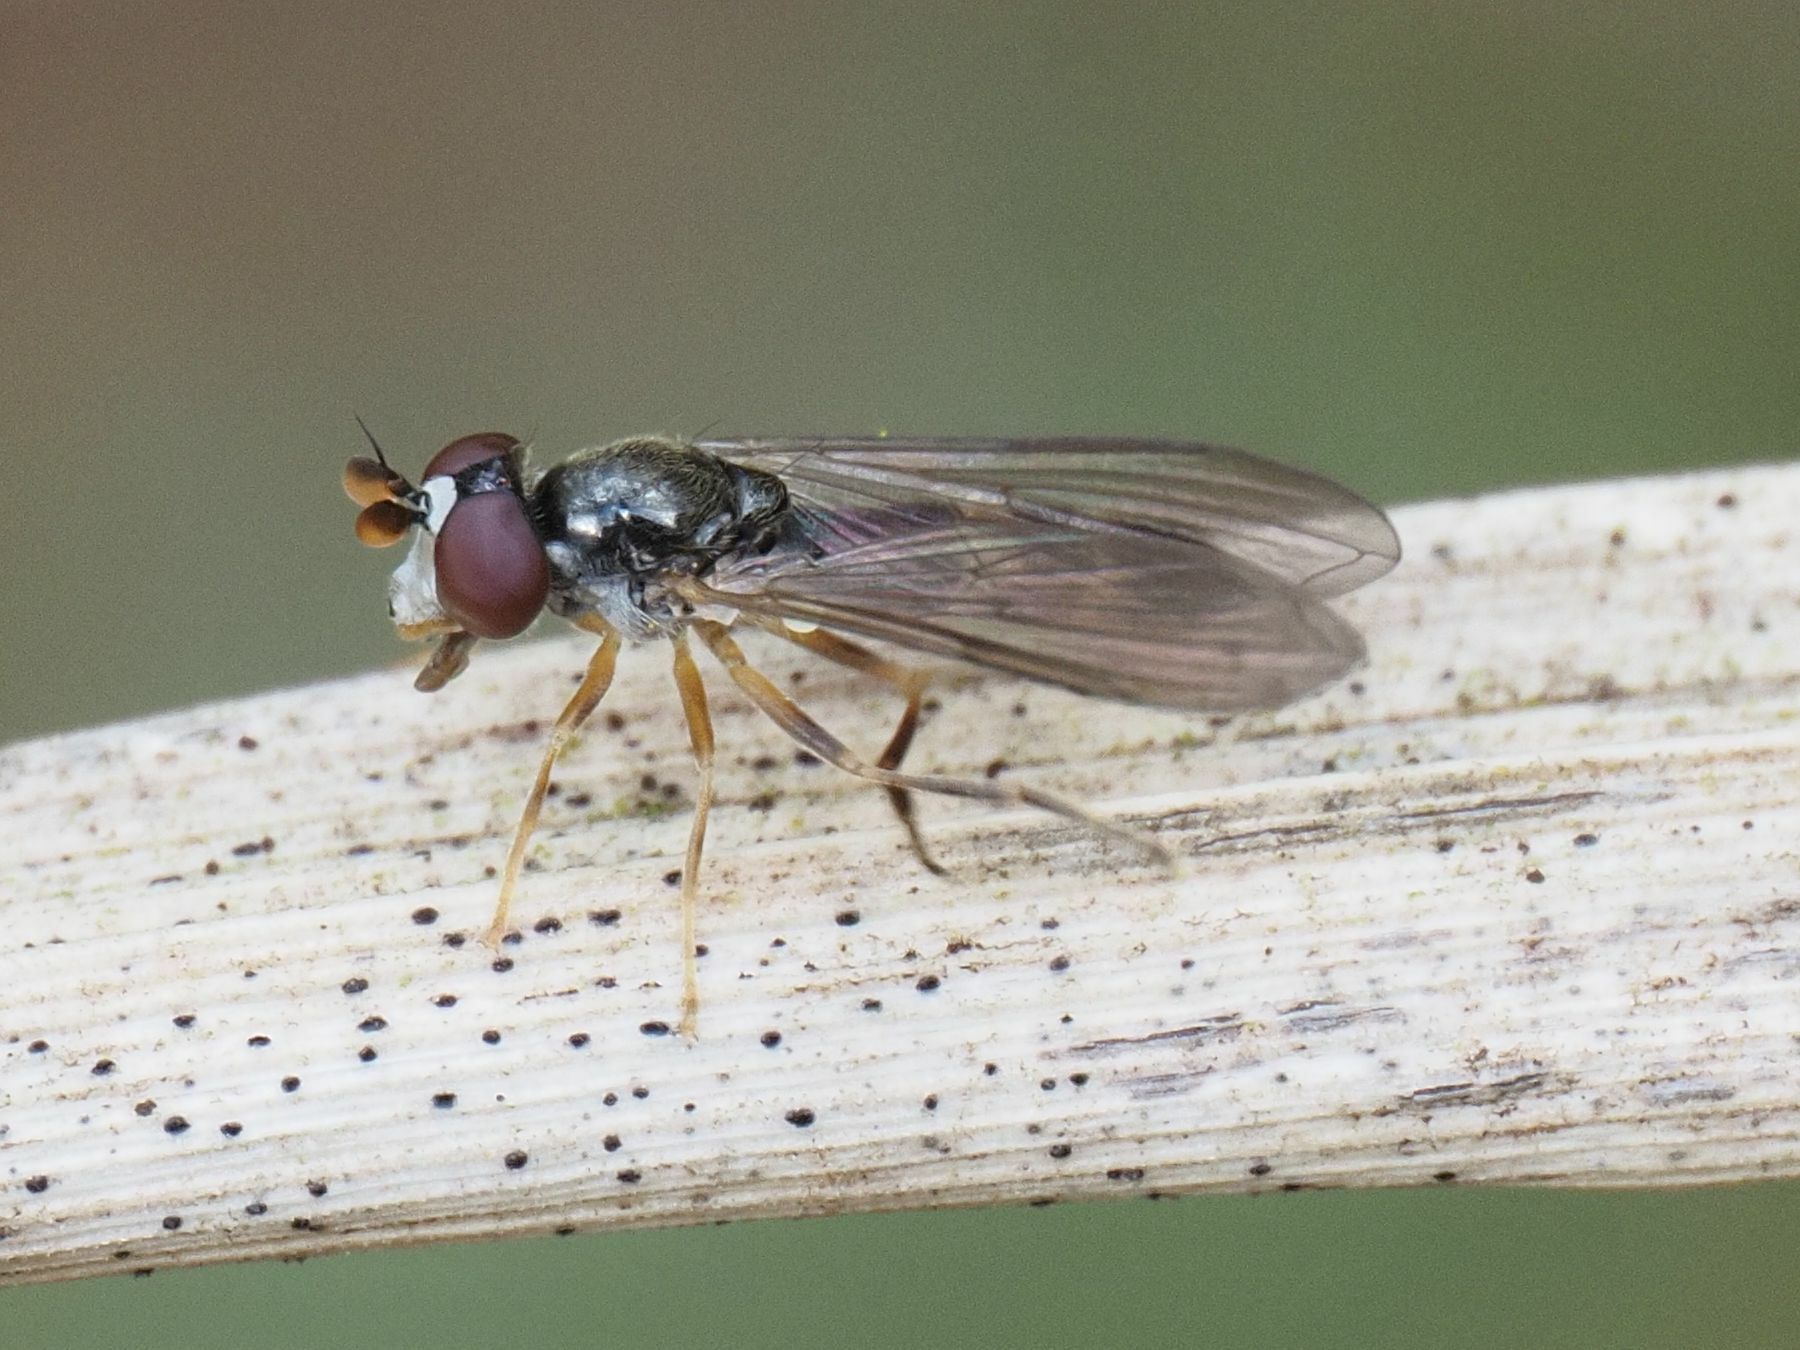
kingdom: Animalia
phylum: Arthropoda
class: Insecta
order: Diptera
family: Syrphidae
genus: Chamaesyrphus
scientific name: Chamaesyrphus scaevoides
